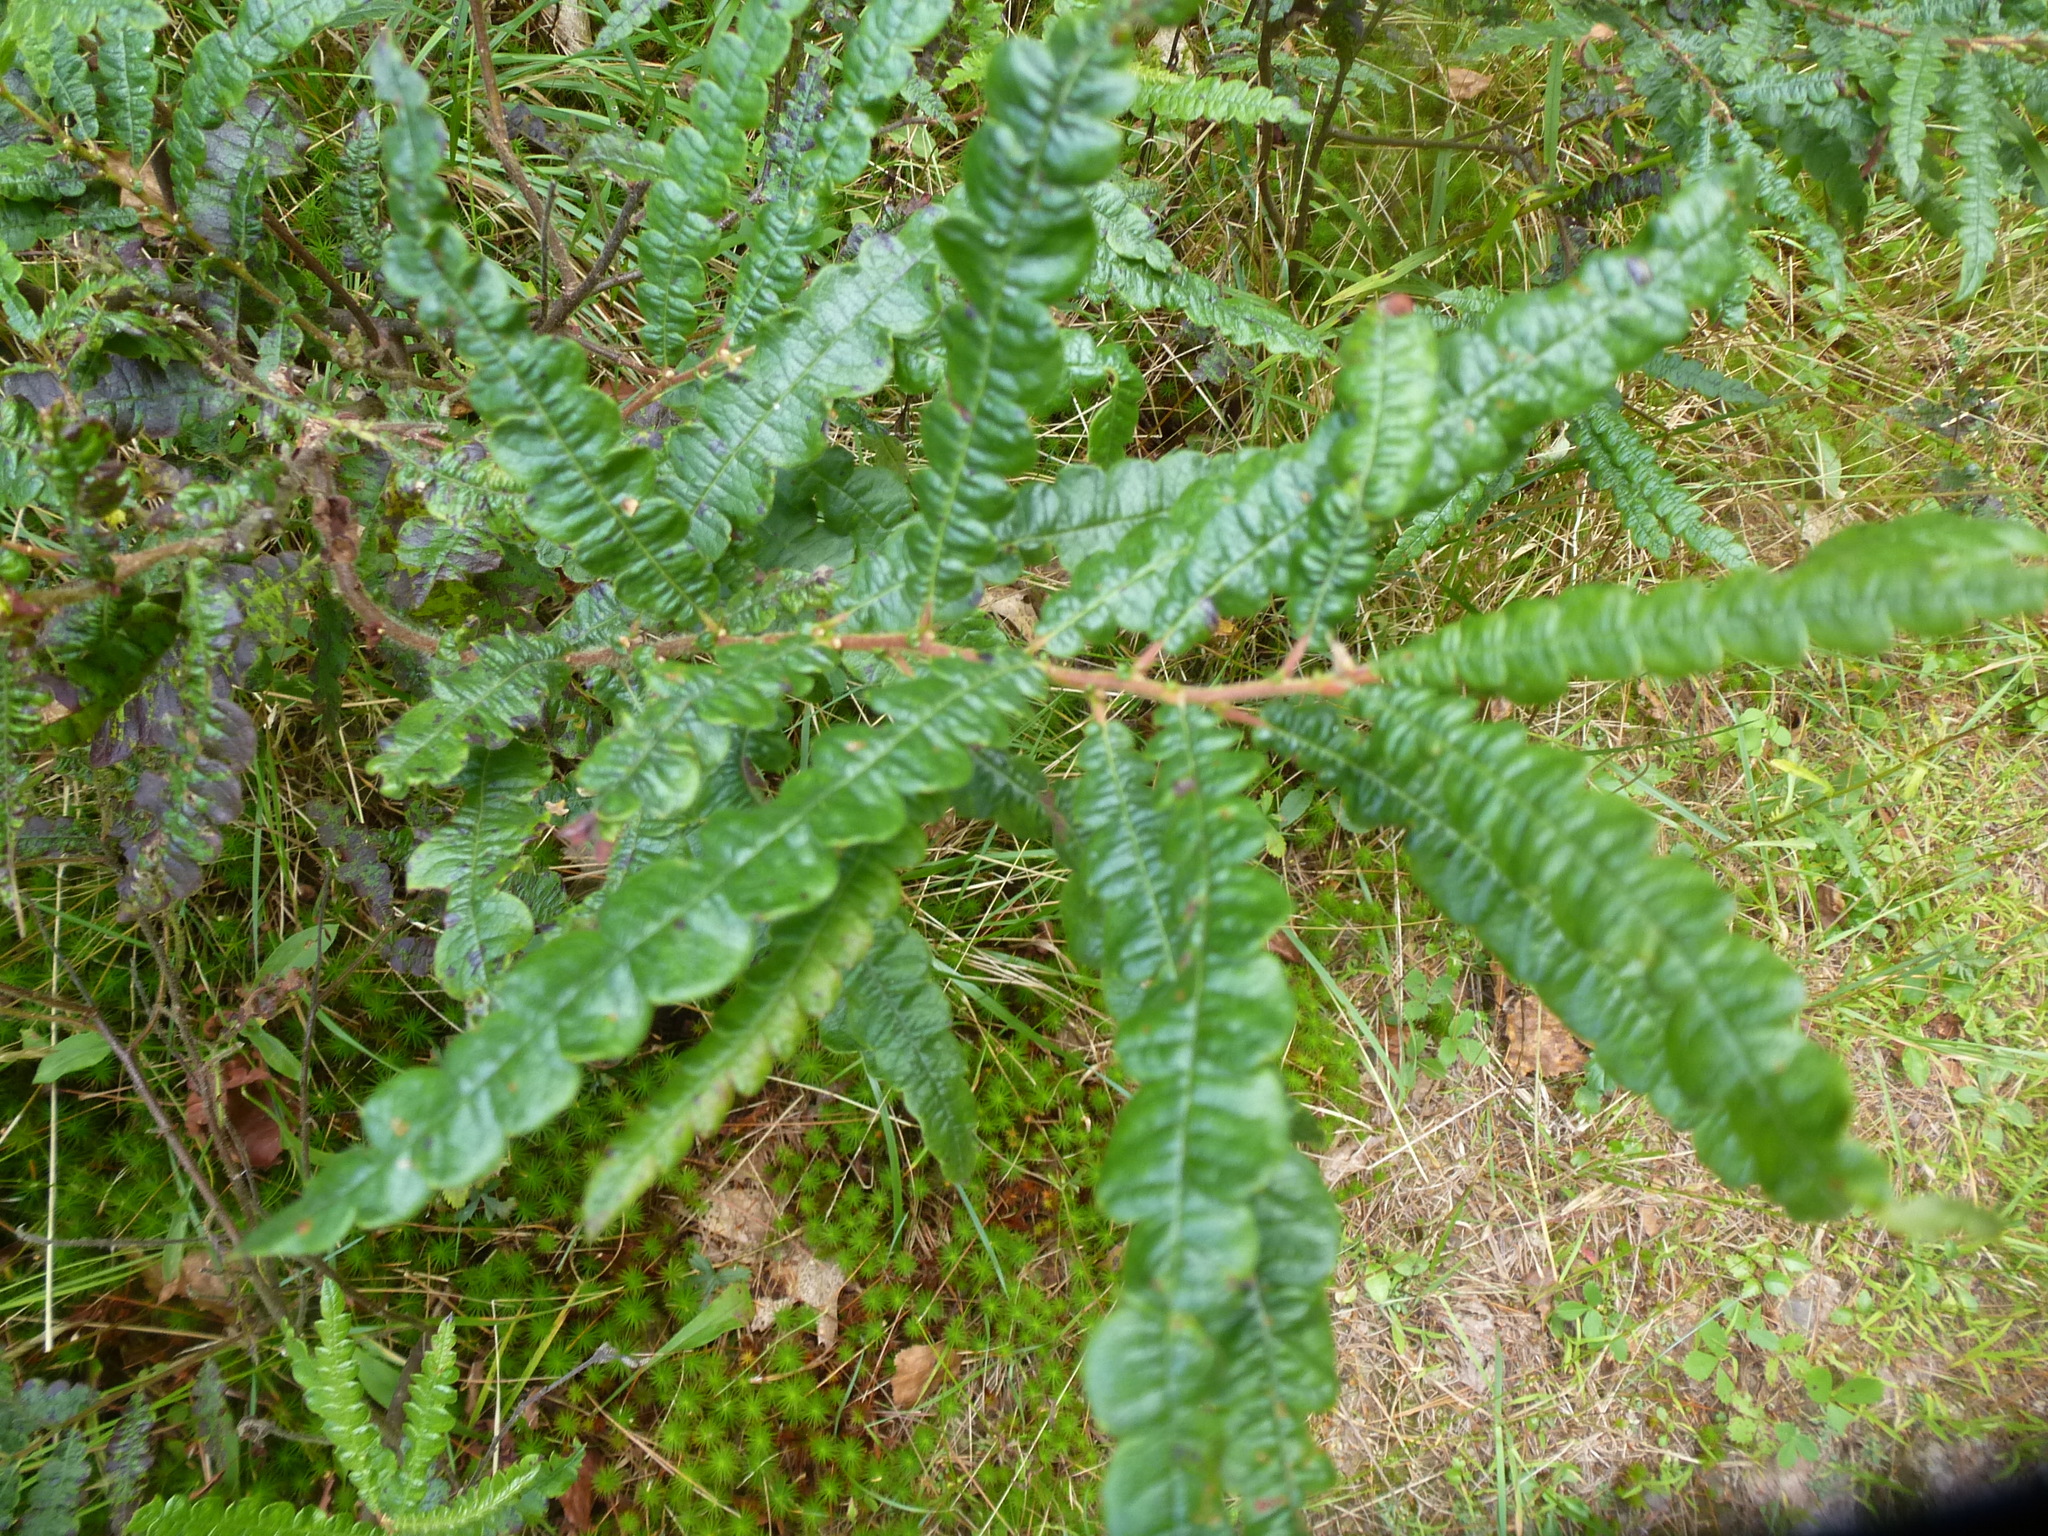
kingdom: Plantae
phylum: Tracheophyta
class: Magnoliopsida
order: Fagales
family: Myricaceae
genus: Comptonia
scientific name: Comptonia peregrina
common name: Sweet-fern
